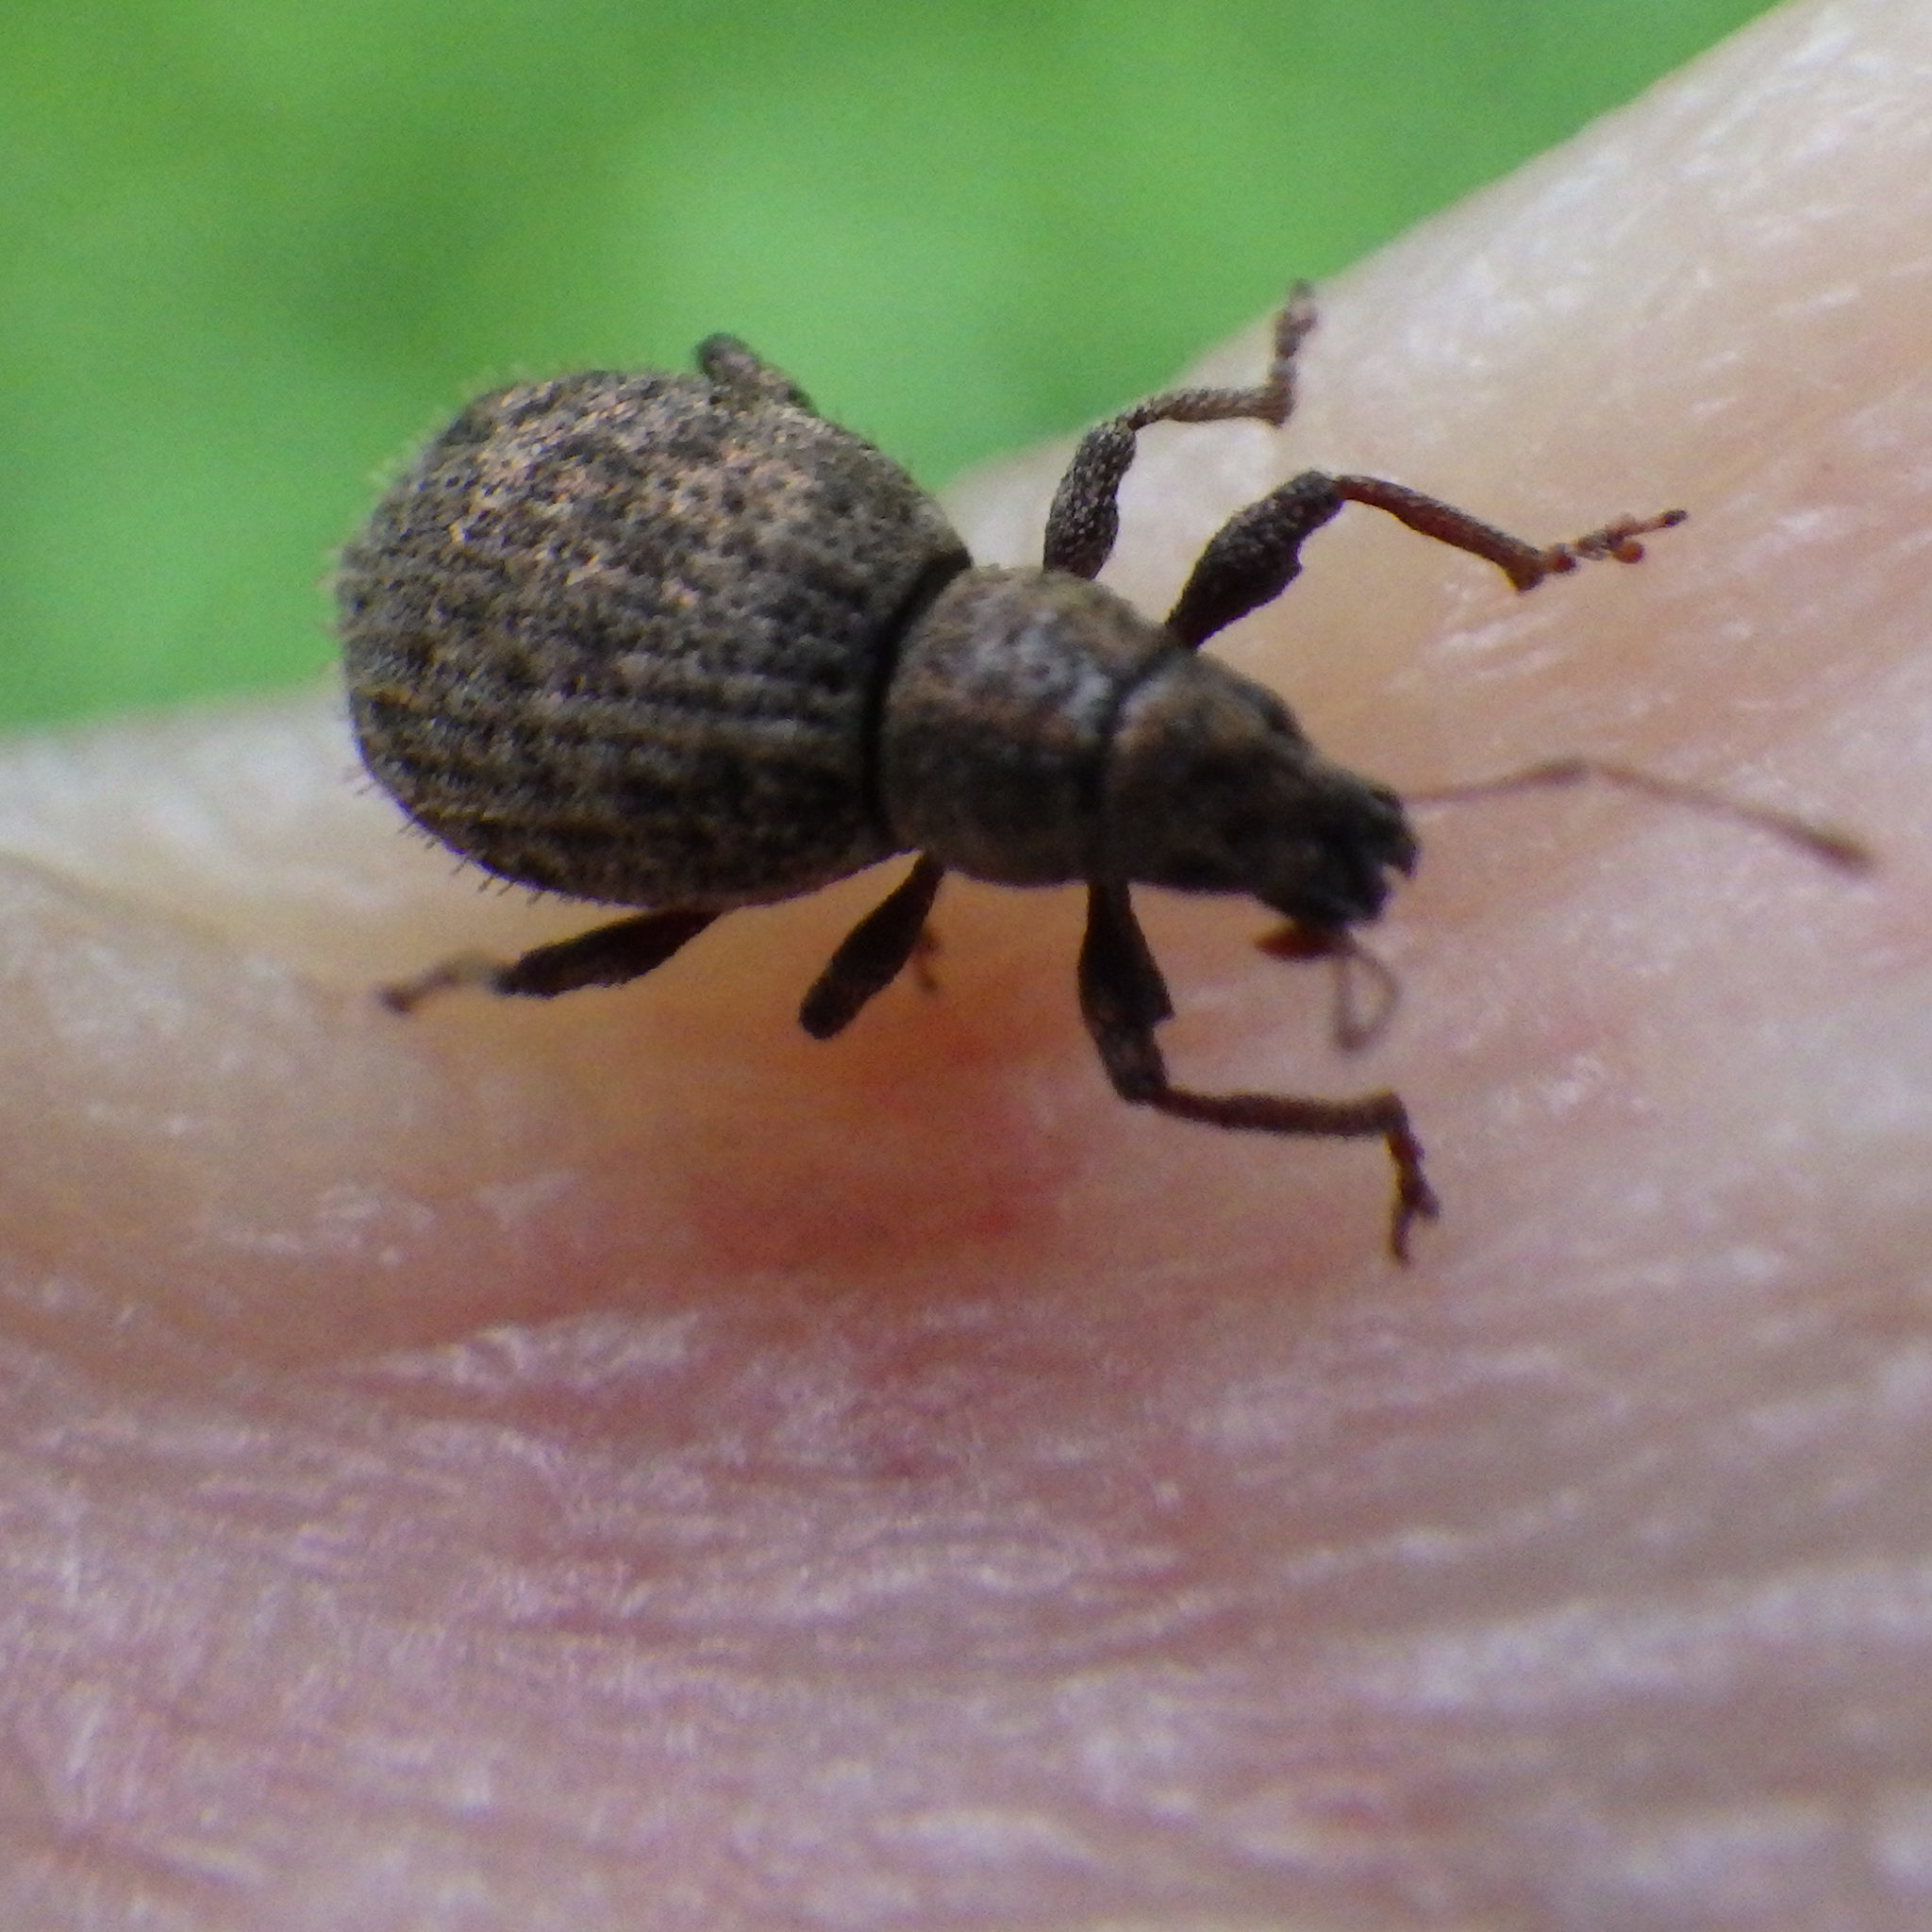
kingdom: Animalia
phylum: Arthropoda
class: Insecta
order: Coleoptera
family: Curculionidae
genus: Sciaphilus
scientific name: Sciaphilus asperatus
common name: Weevil
